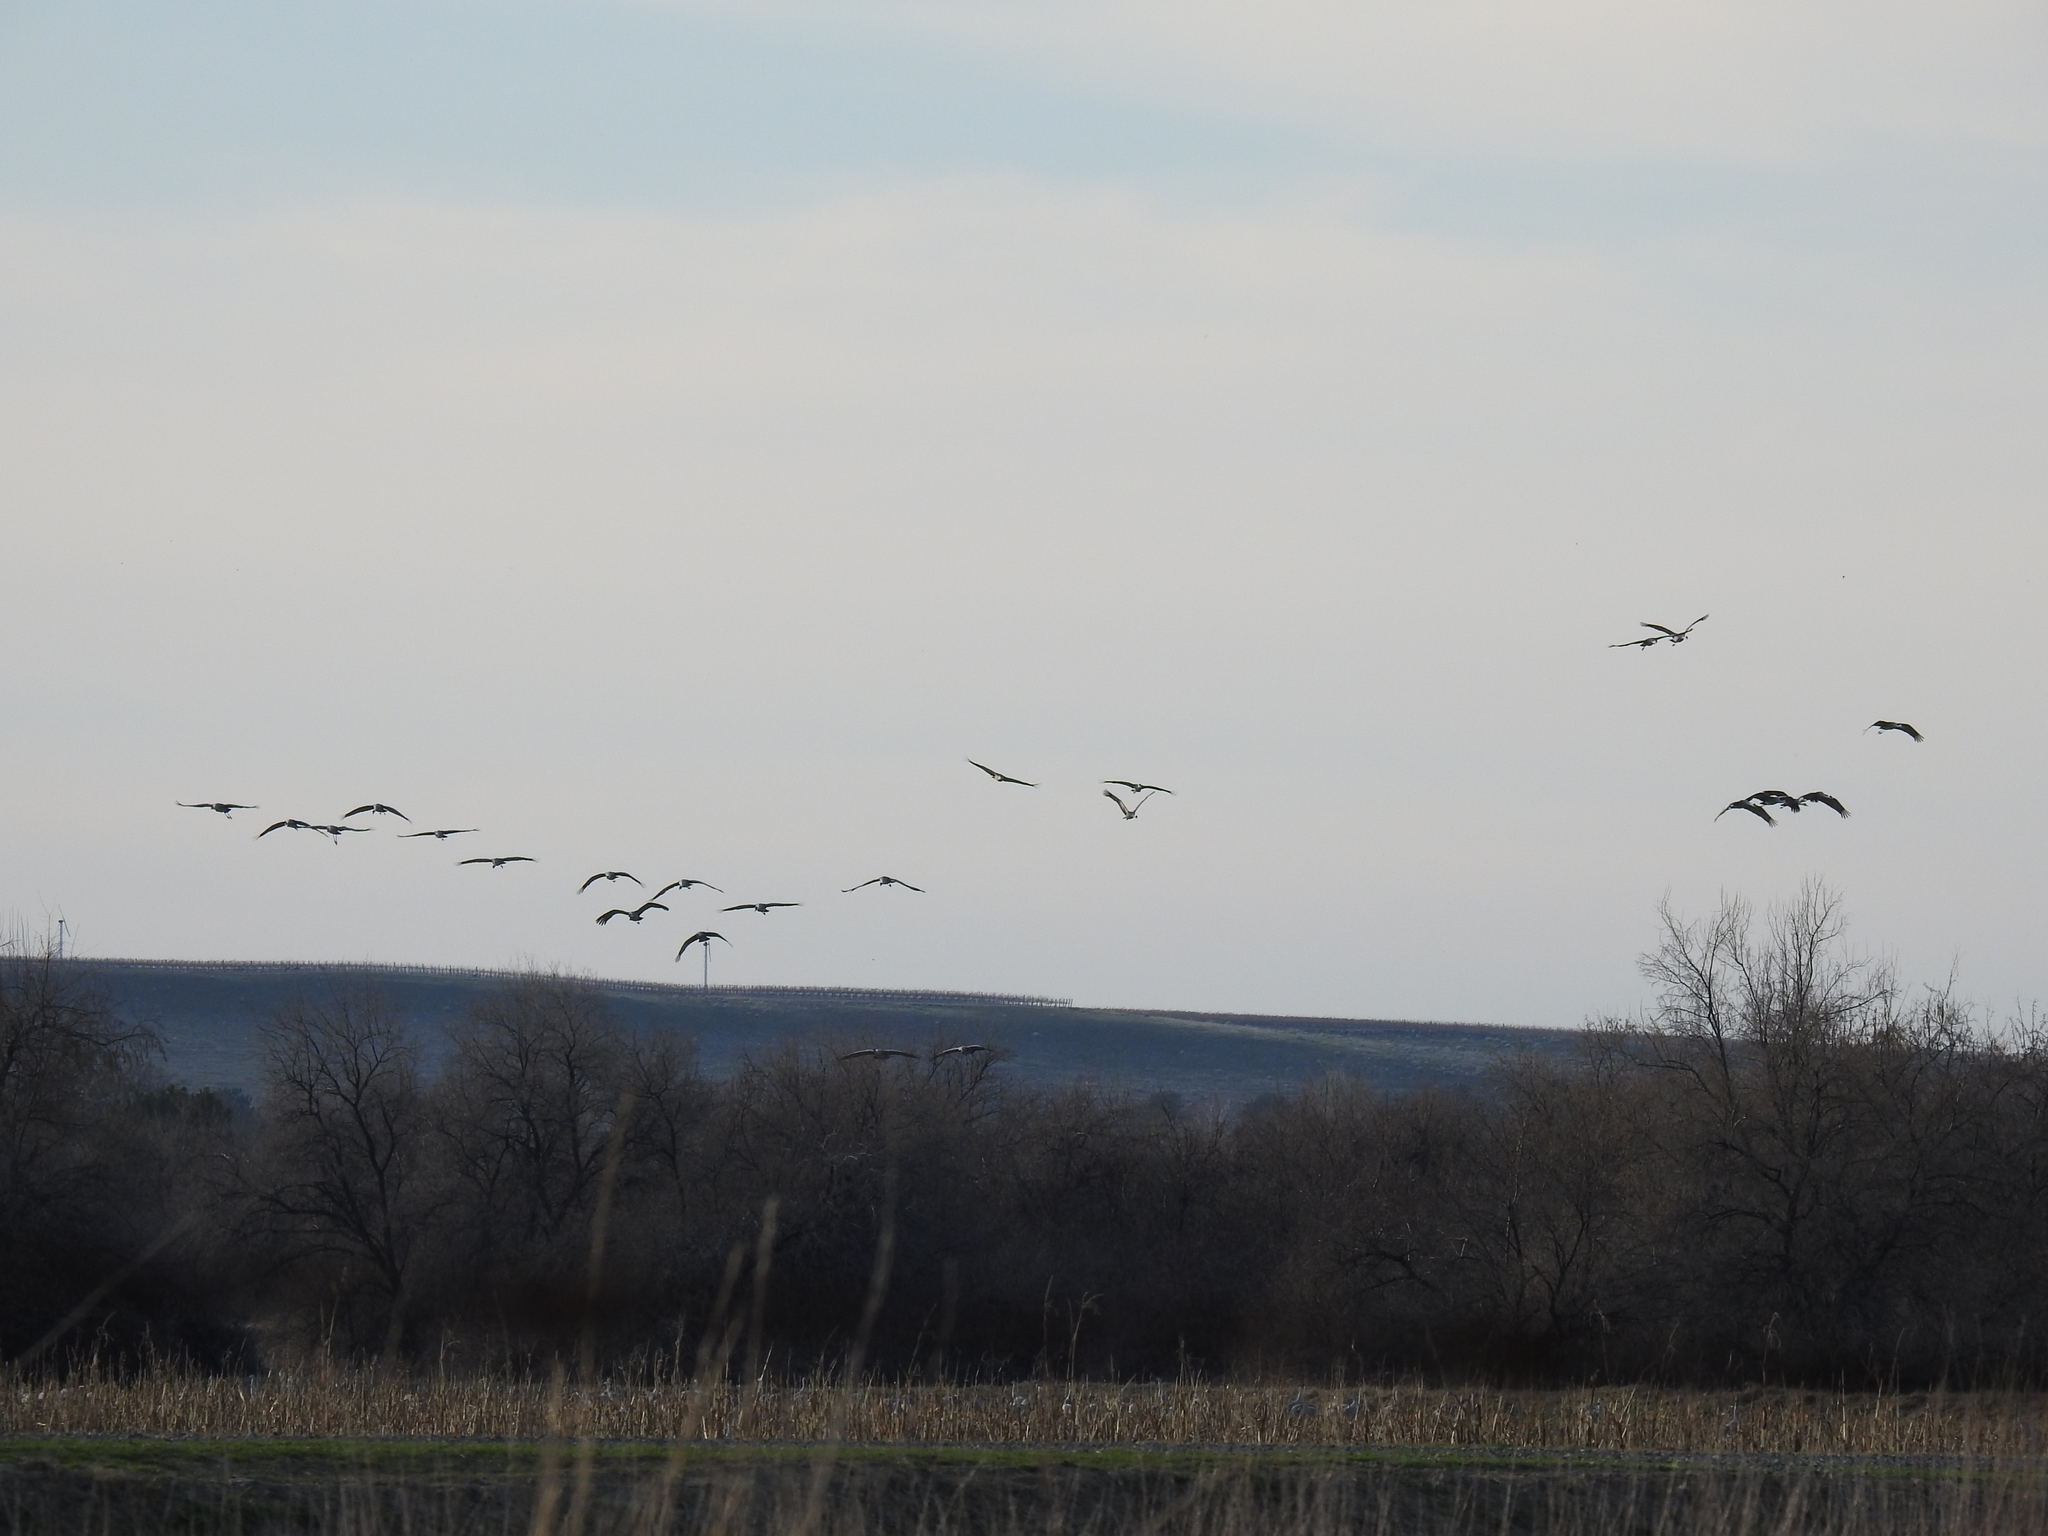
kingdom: Animalia
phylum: Chordata
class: Aves
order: Gruiformes
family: Gruidae
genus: Grus
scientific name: Grus canadensis
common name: Sandhill crane
